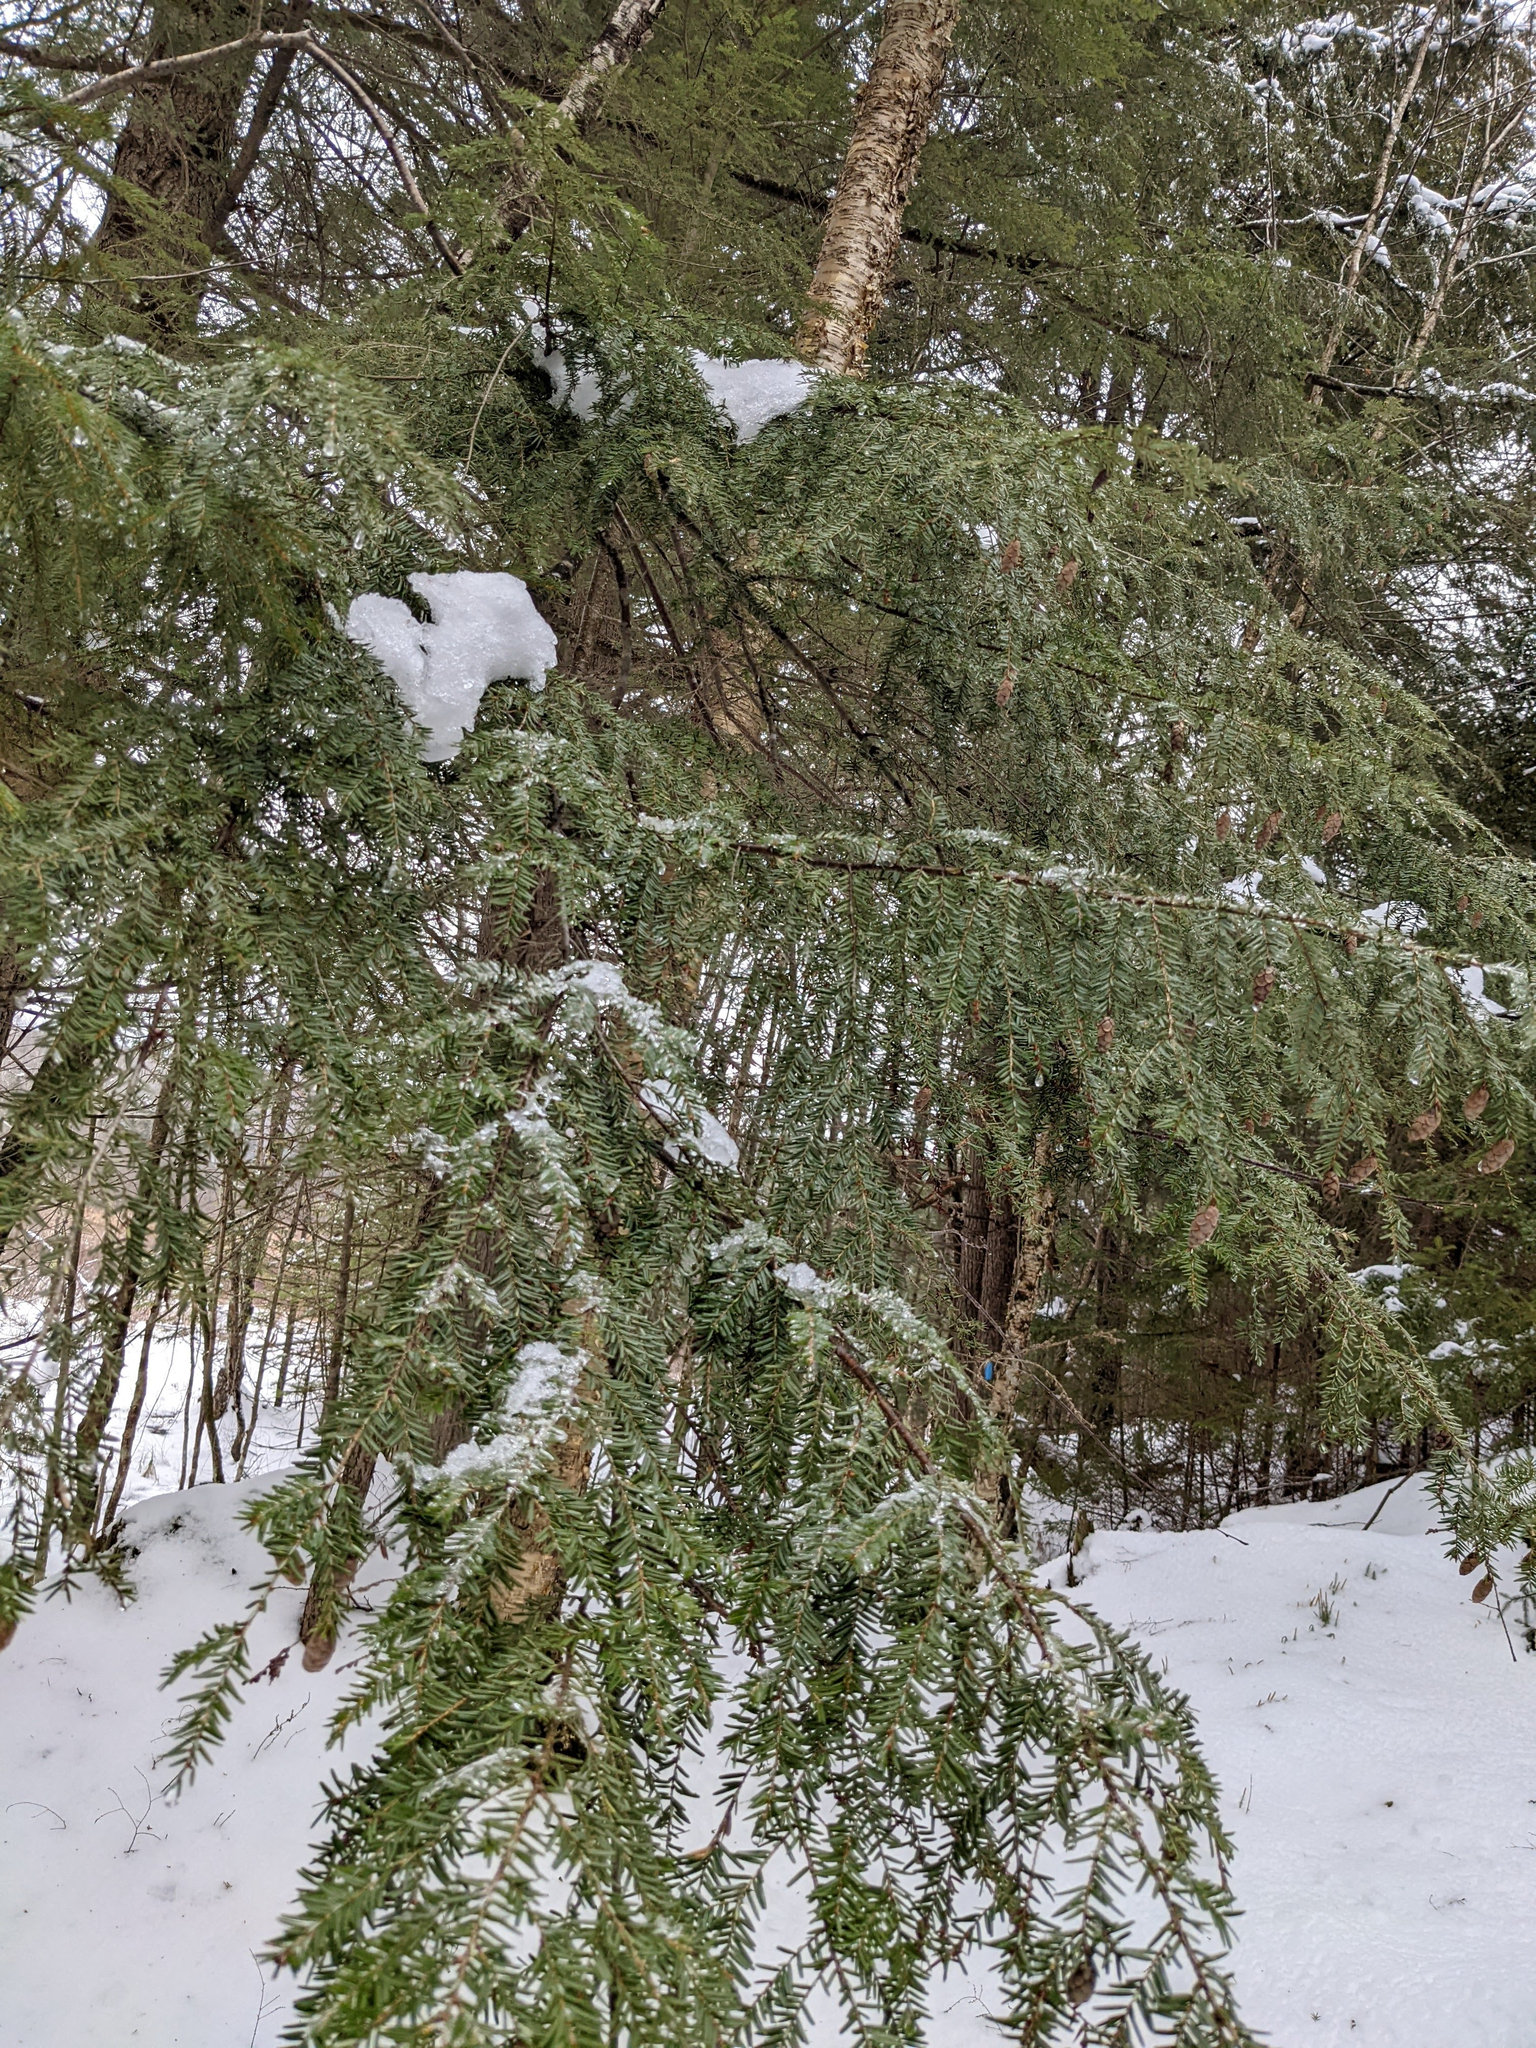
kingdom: Plantae
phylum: Tracheophyta
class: Pinopsida
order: Pinales
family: Pinaceae
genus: Tsuga
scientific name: Tsuga canadensis
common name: Eastern hemlock
